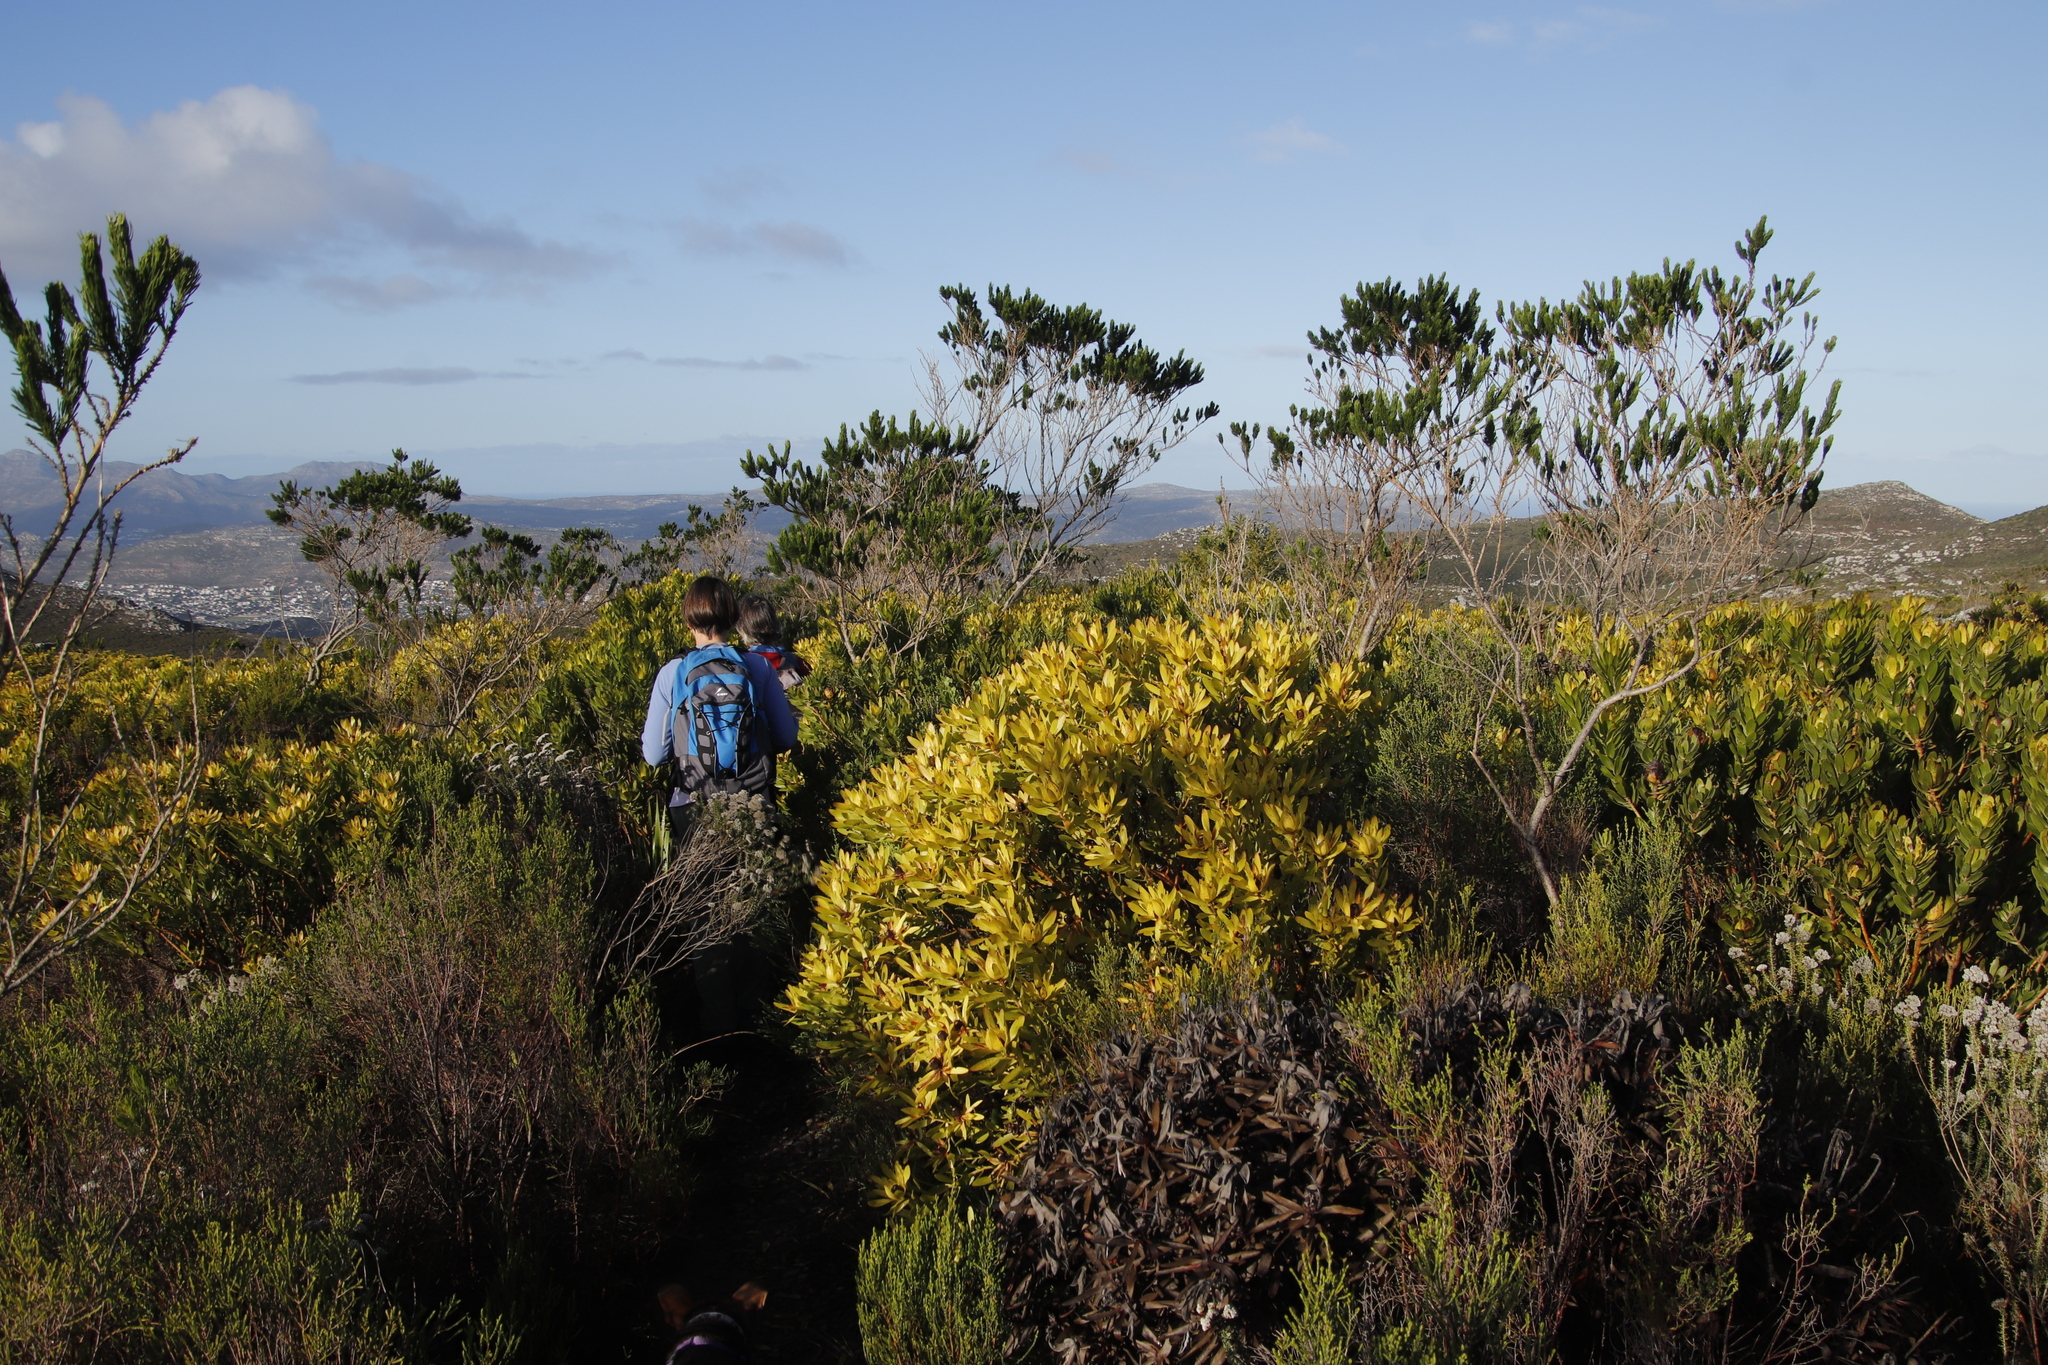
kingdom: Plantae
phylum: Tracheophyta
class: Magnoliopsida
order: Fabales
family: Fabaceae
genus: Psoralea
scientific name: Psoralea pinnata
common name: African scurfpea
